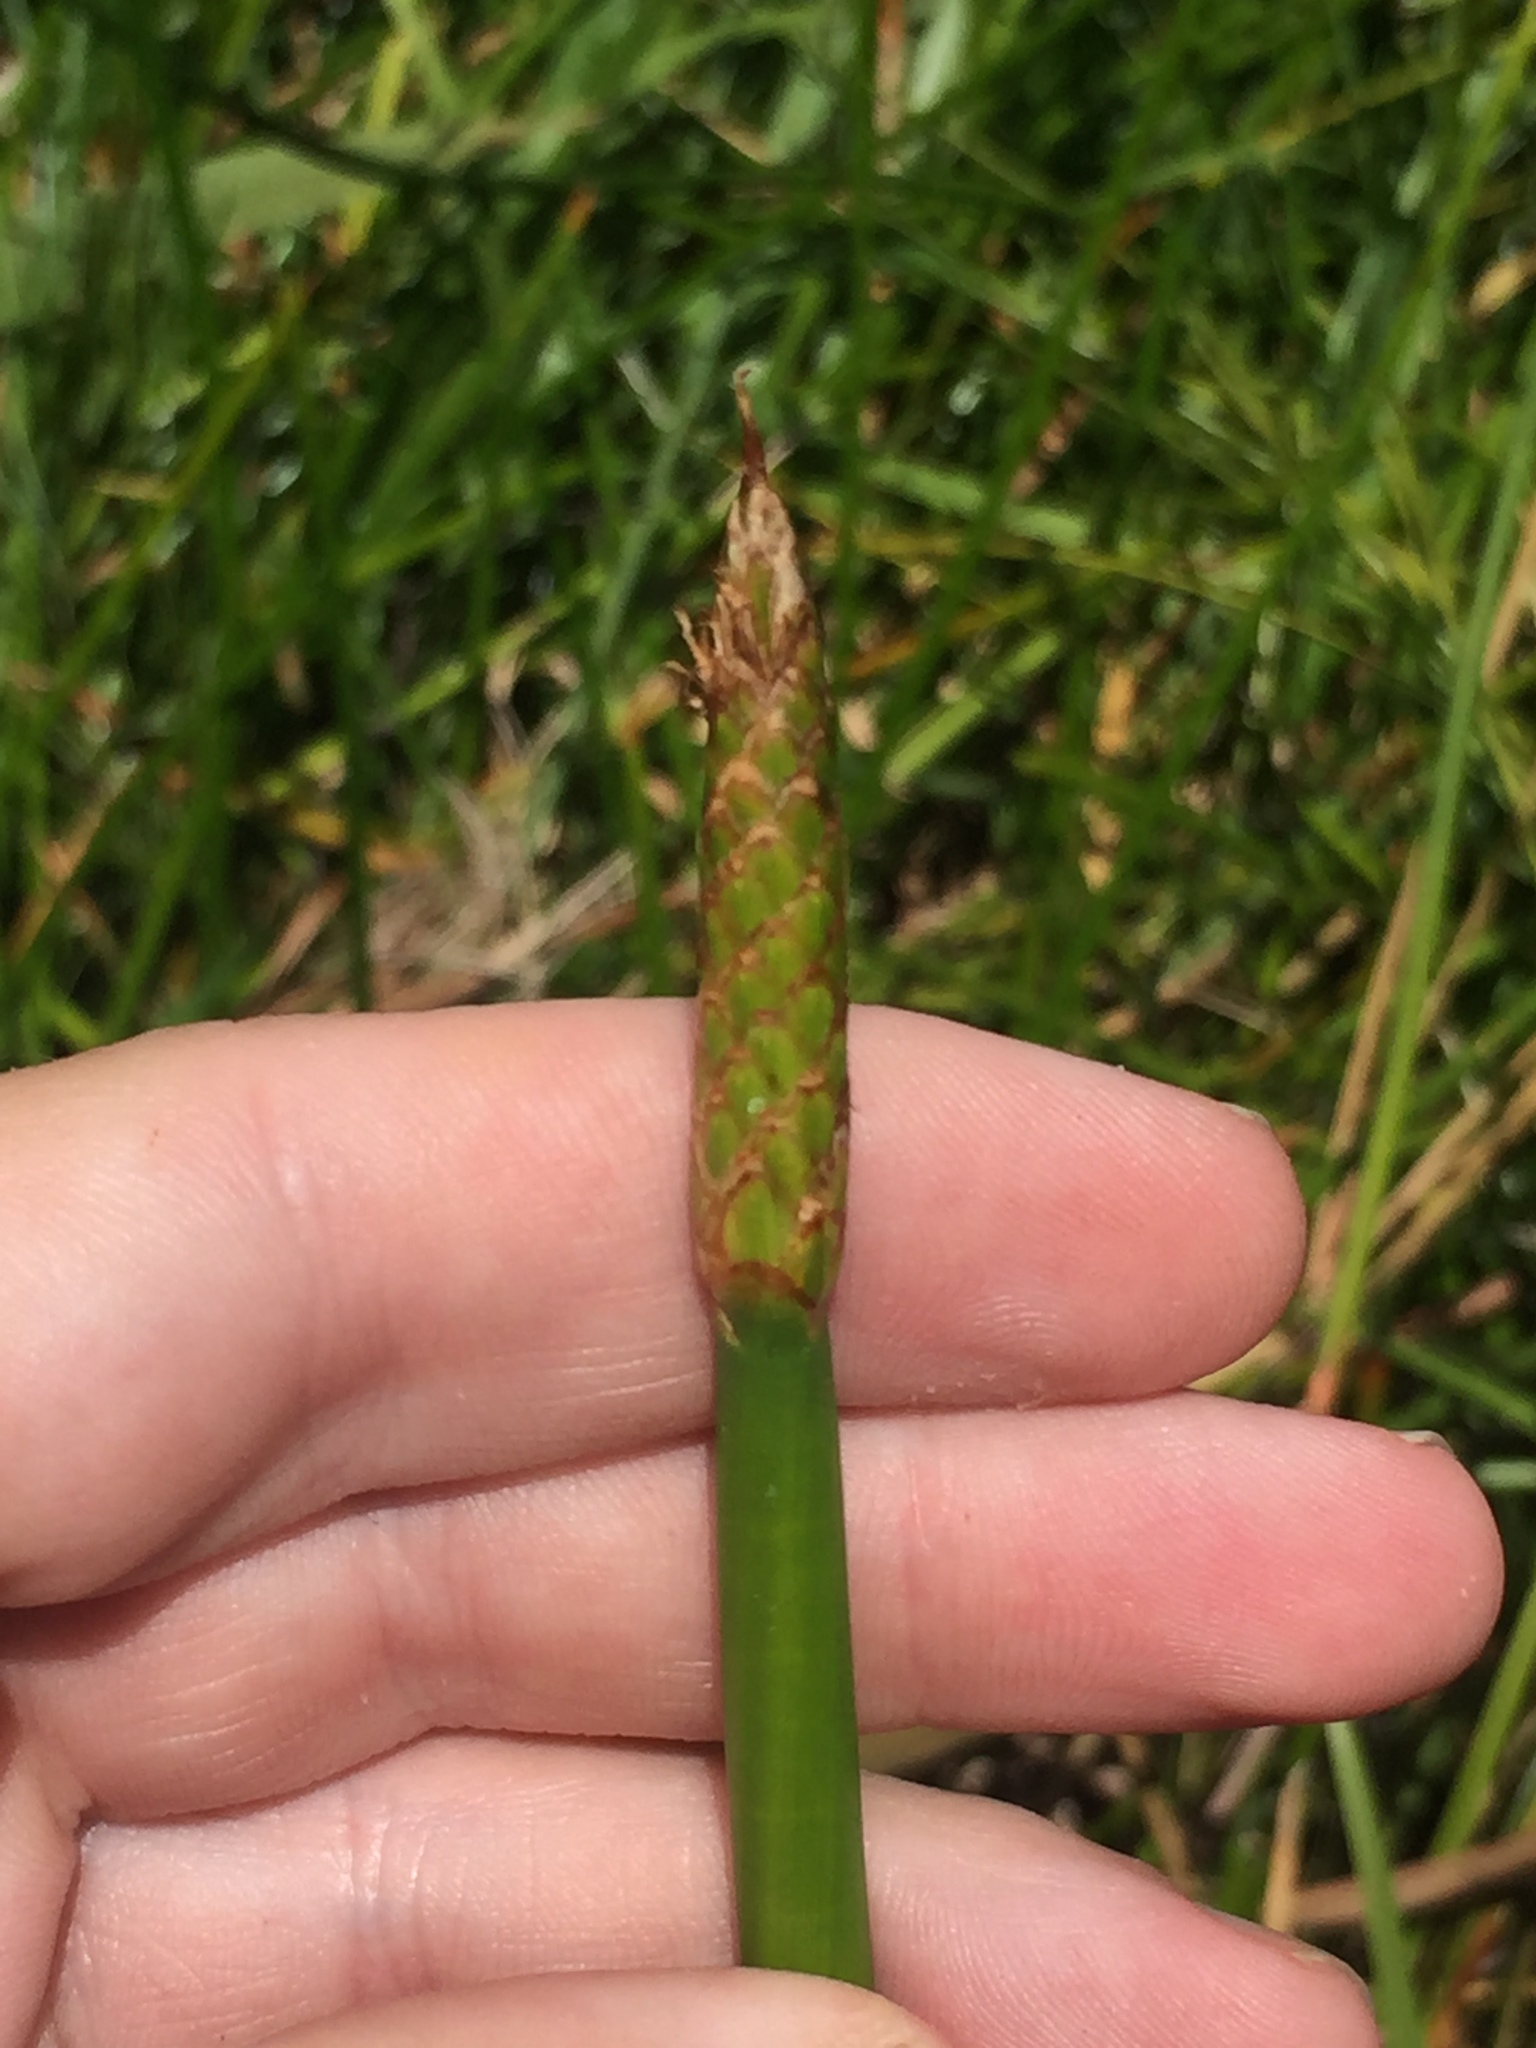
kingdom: Plantae
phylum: Tracheophyta
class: Liliopsida
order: Poales
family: Cyperaceae
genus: Eleocharis
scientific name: Eleocharis sphacelata
